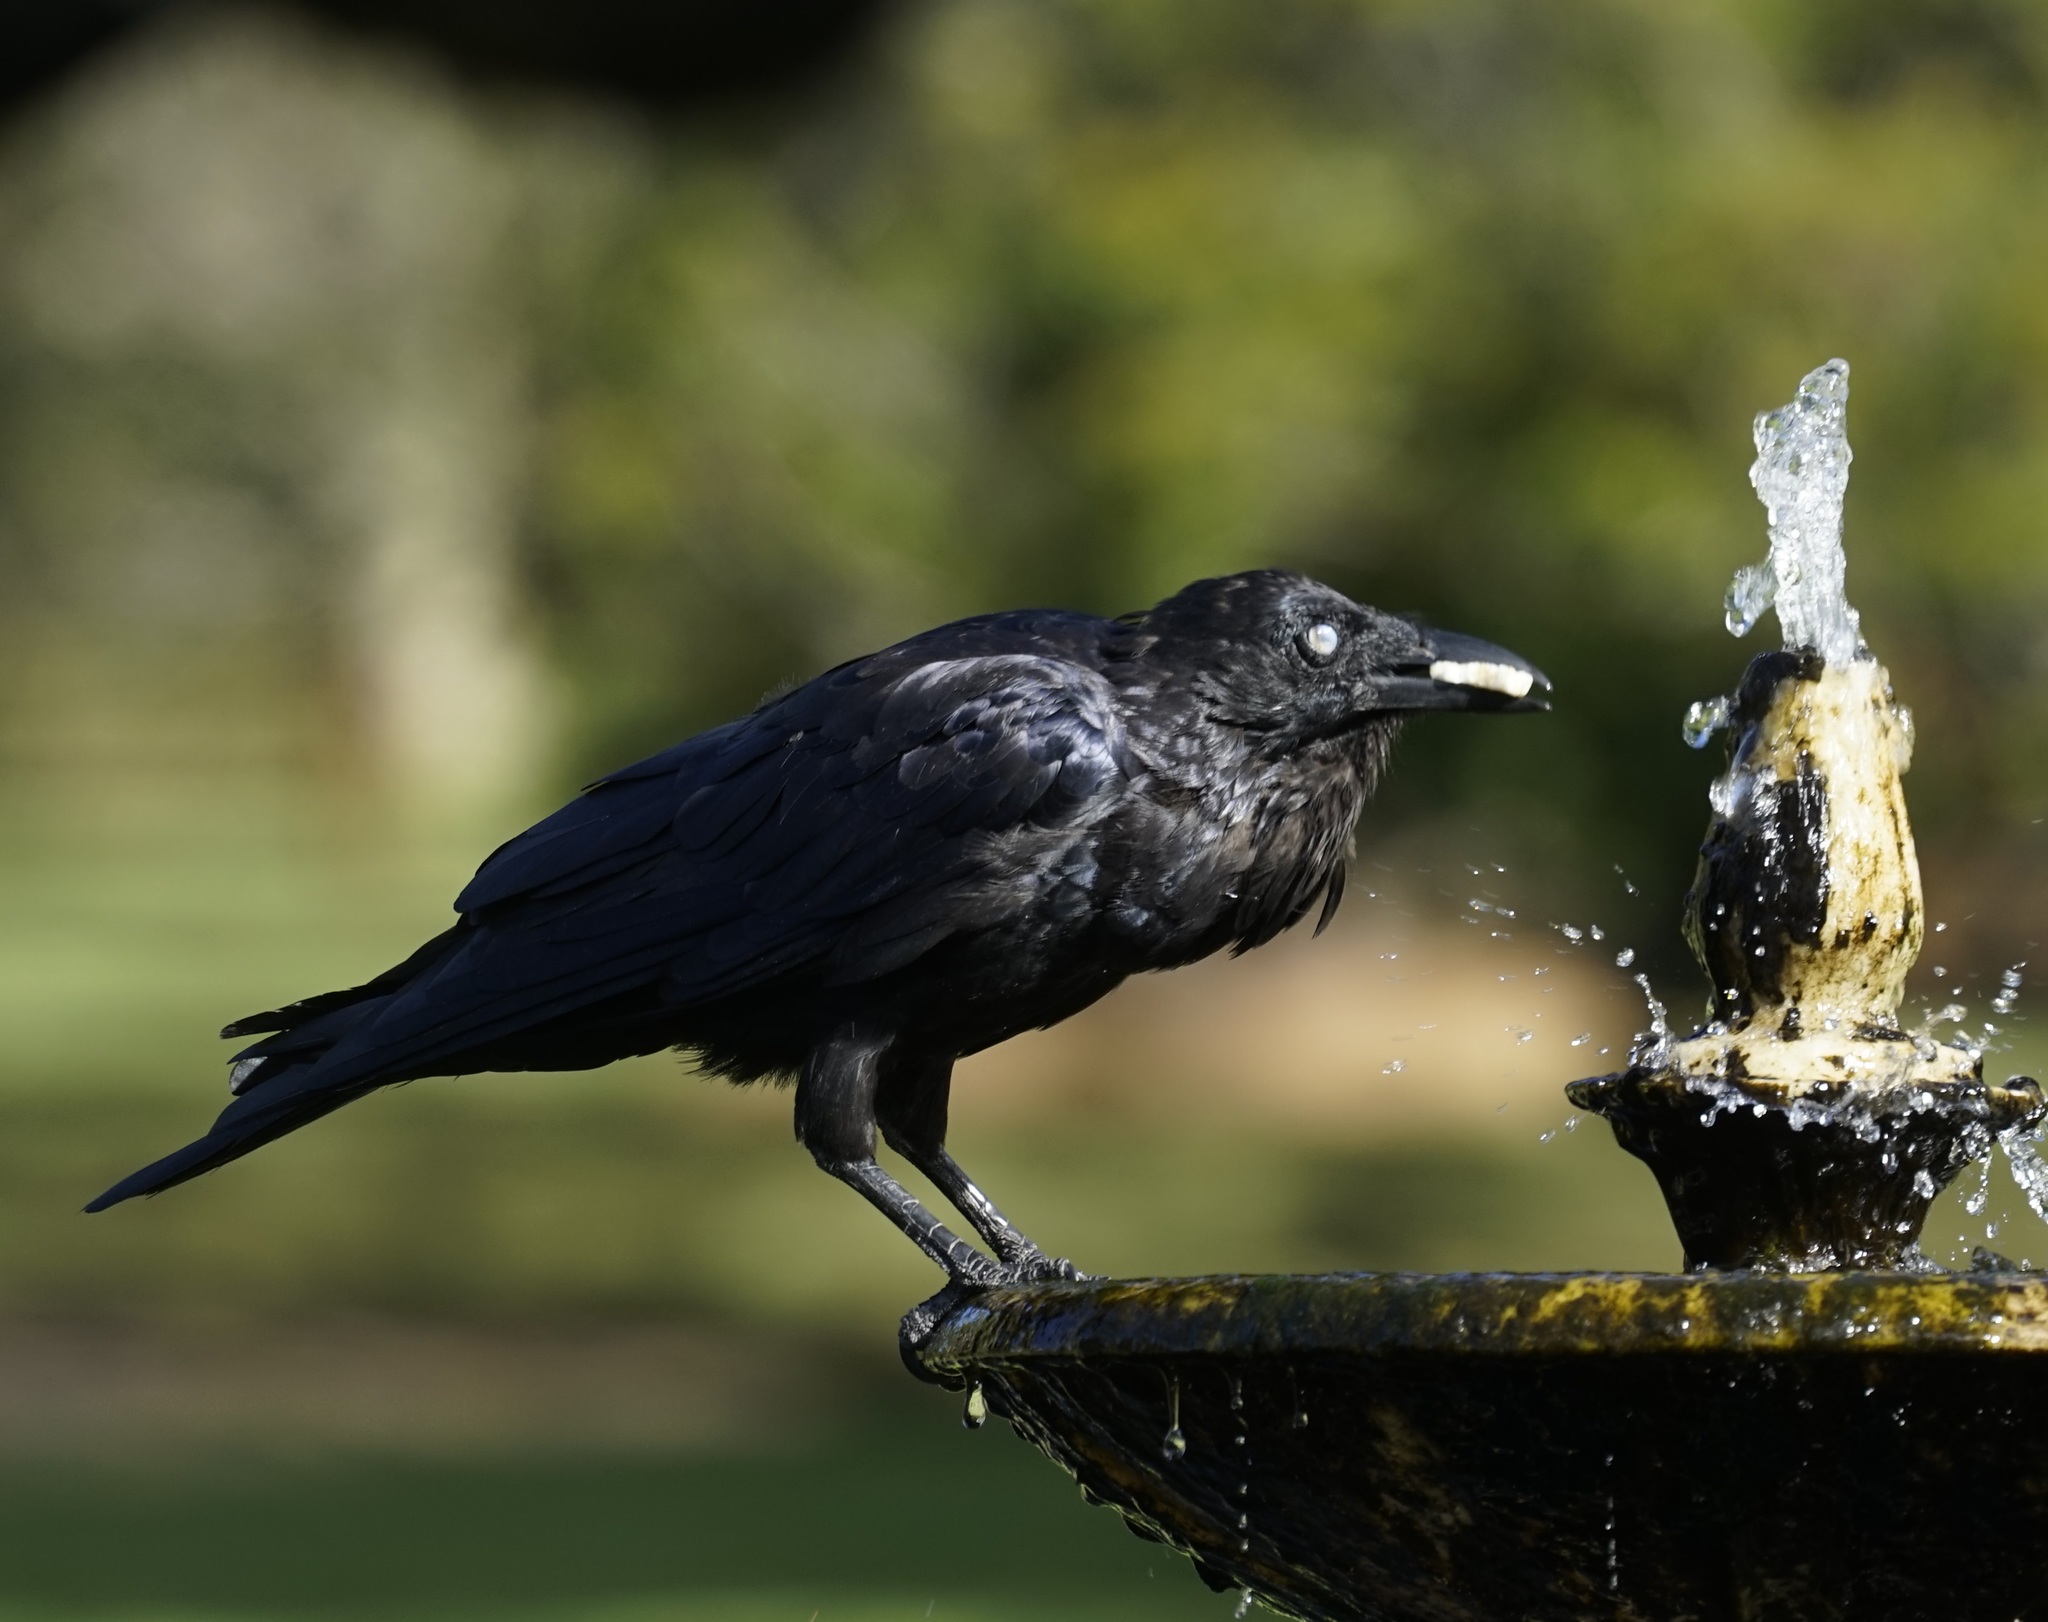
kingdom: Animalia
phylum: Chordata
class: Aves
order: Passeriformes
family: Corvidae
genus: Corvus
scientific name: Corvus coronoides
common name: Australian raven
